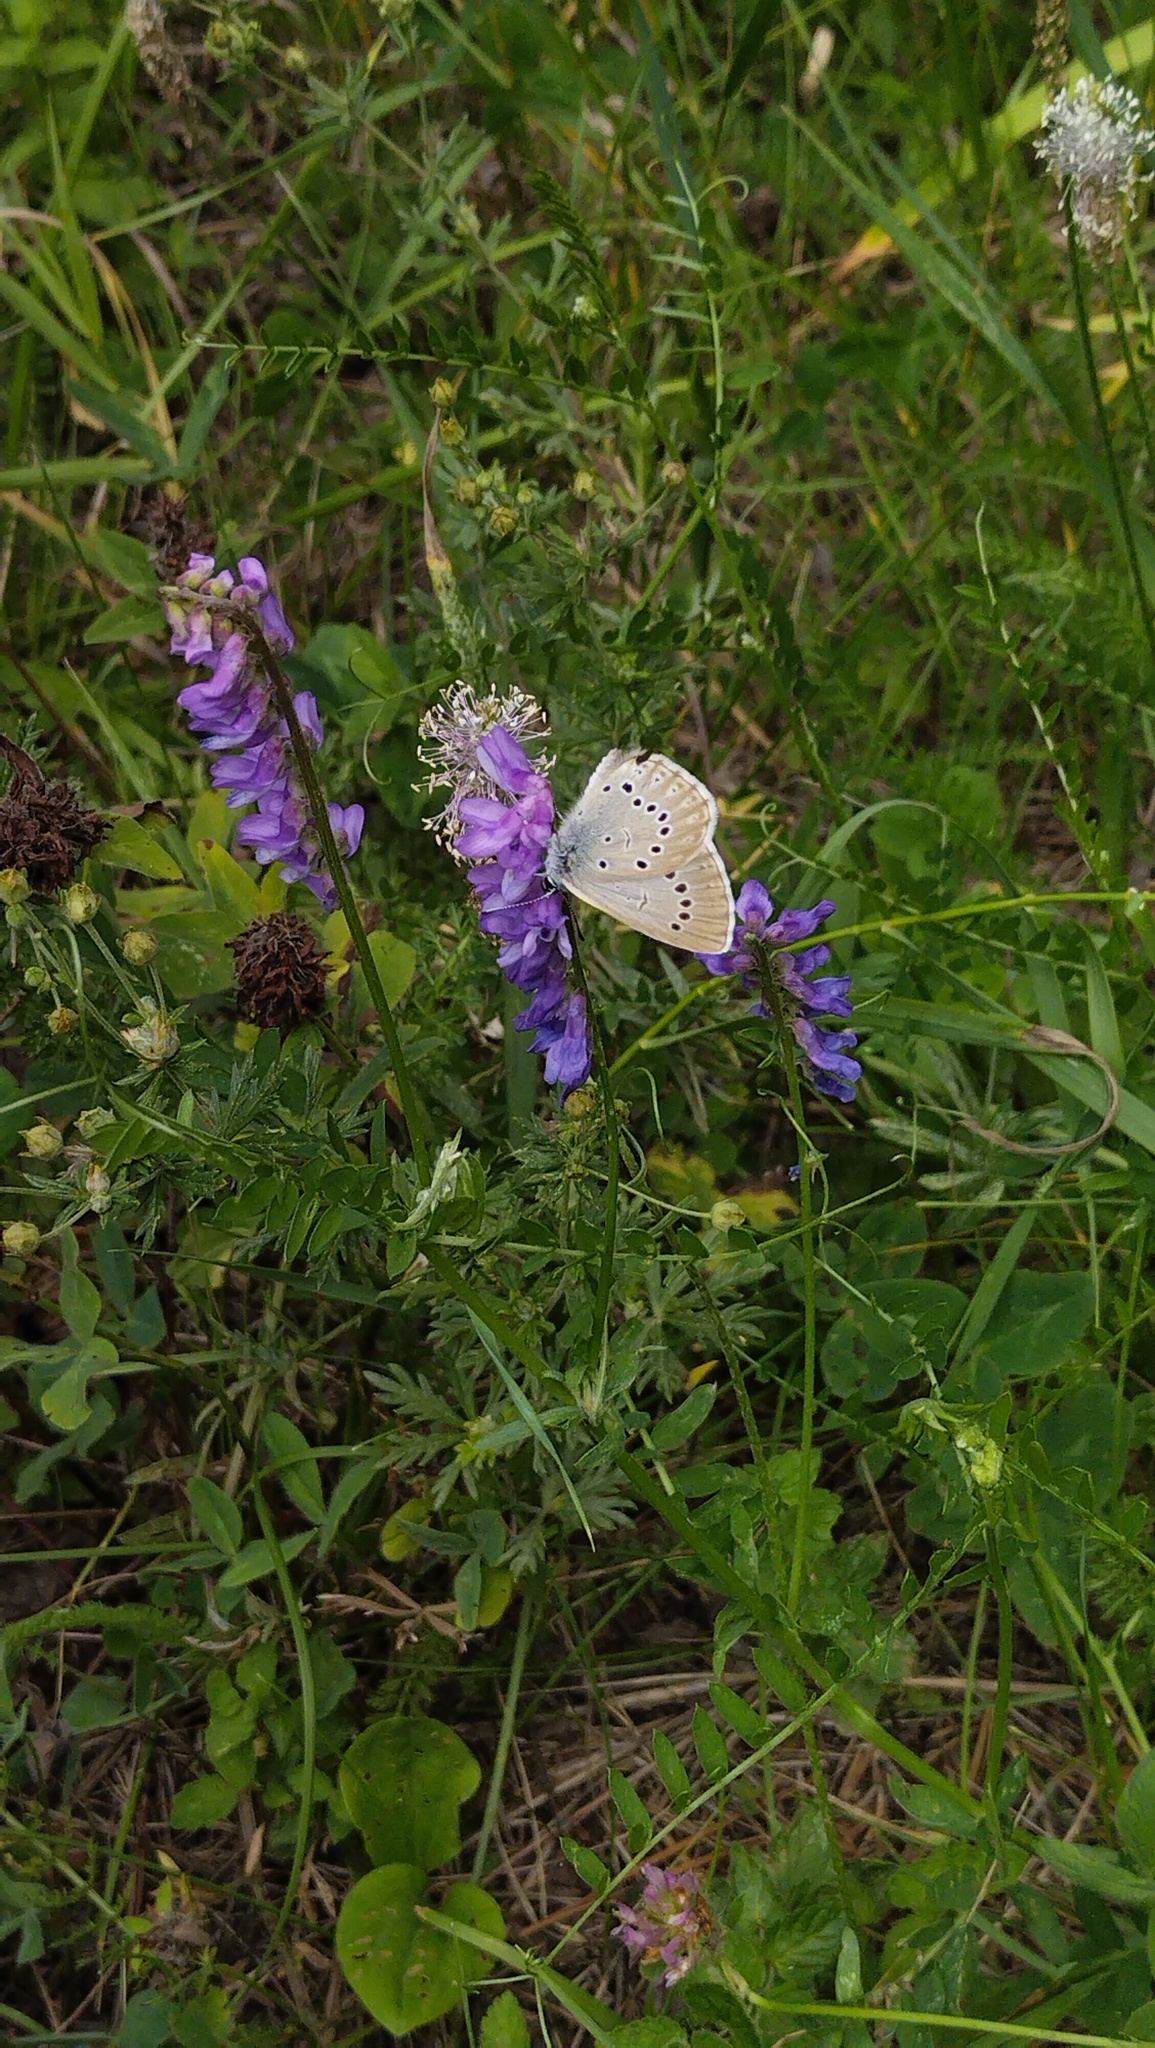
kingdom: Animalia
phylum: Arthropoda
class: Insecta
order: Lepidoptera
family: Lycaenidae
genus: Phengaris
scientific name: Phengaris teleius
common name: Scarce large blue
